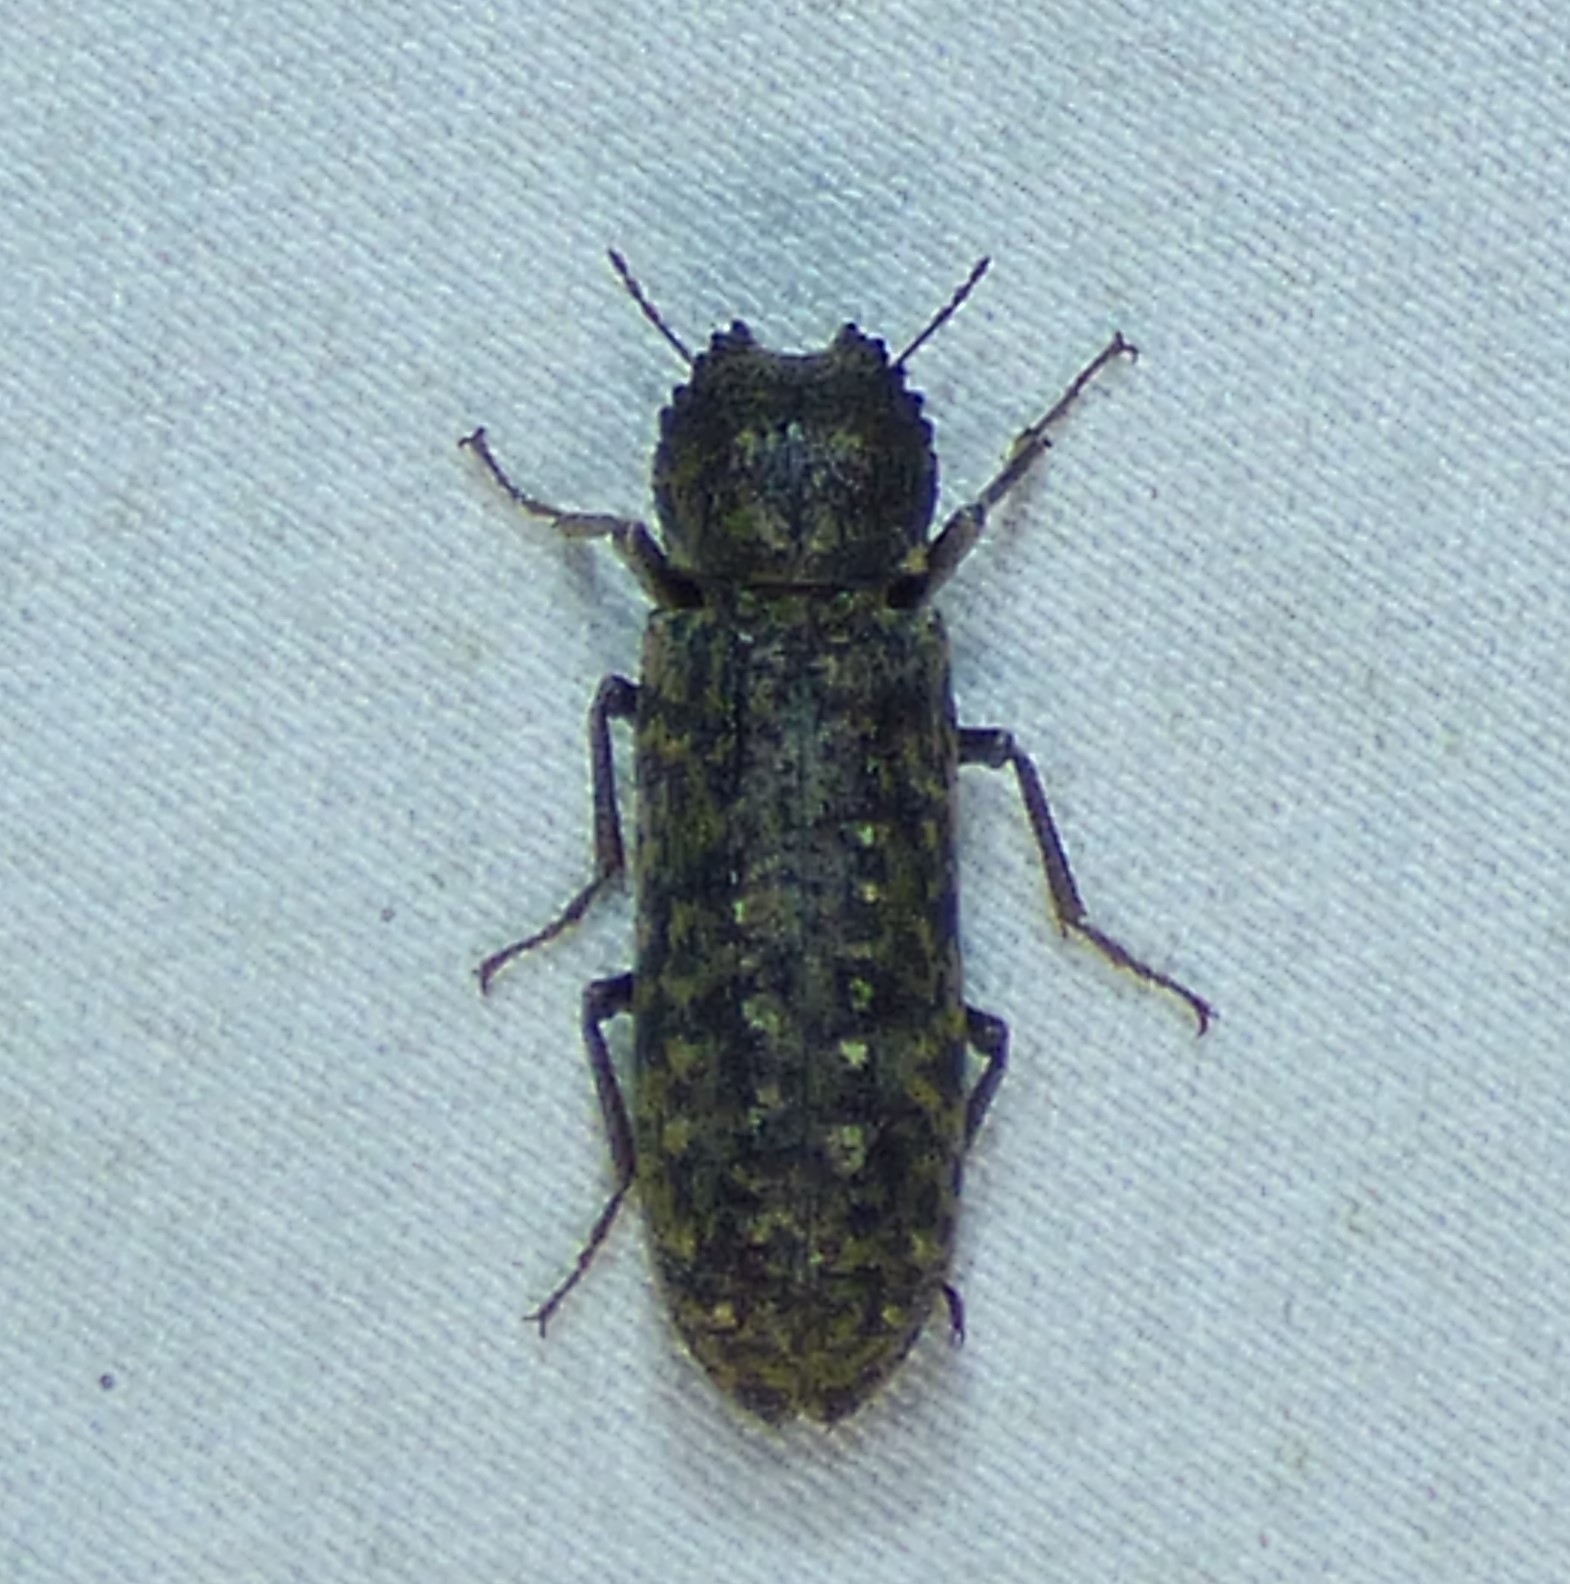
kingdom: Animalia
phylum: Arthropoda
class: Insecta
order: Coleoptera
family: Bostrichidae
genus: Lichenophanes
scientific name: Lichenophanes bicornis
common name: Two-horned powder-post beetle
